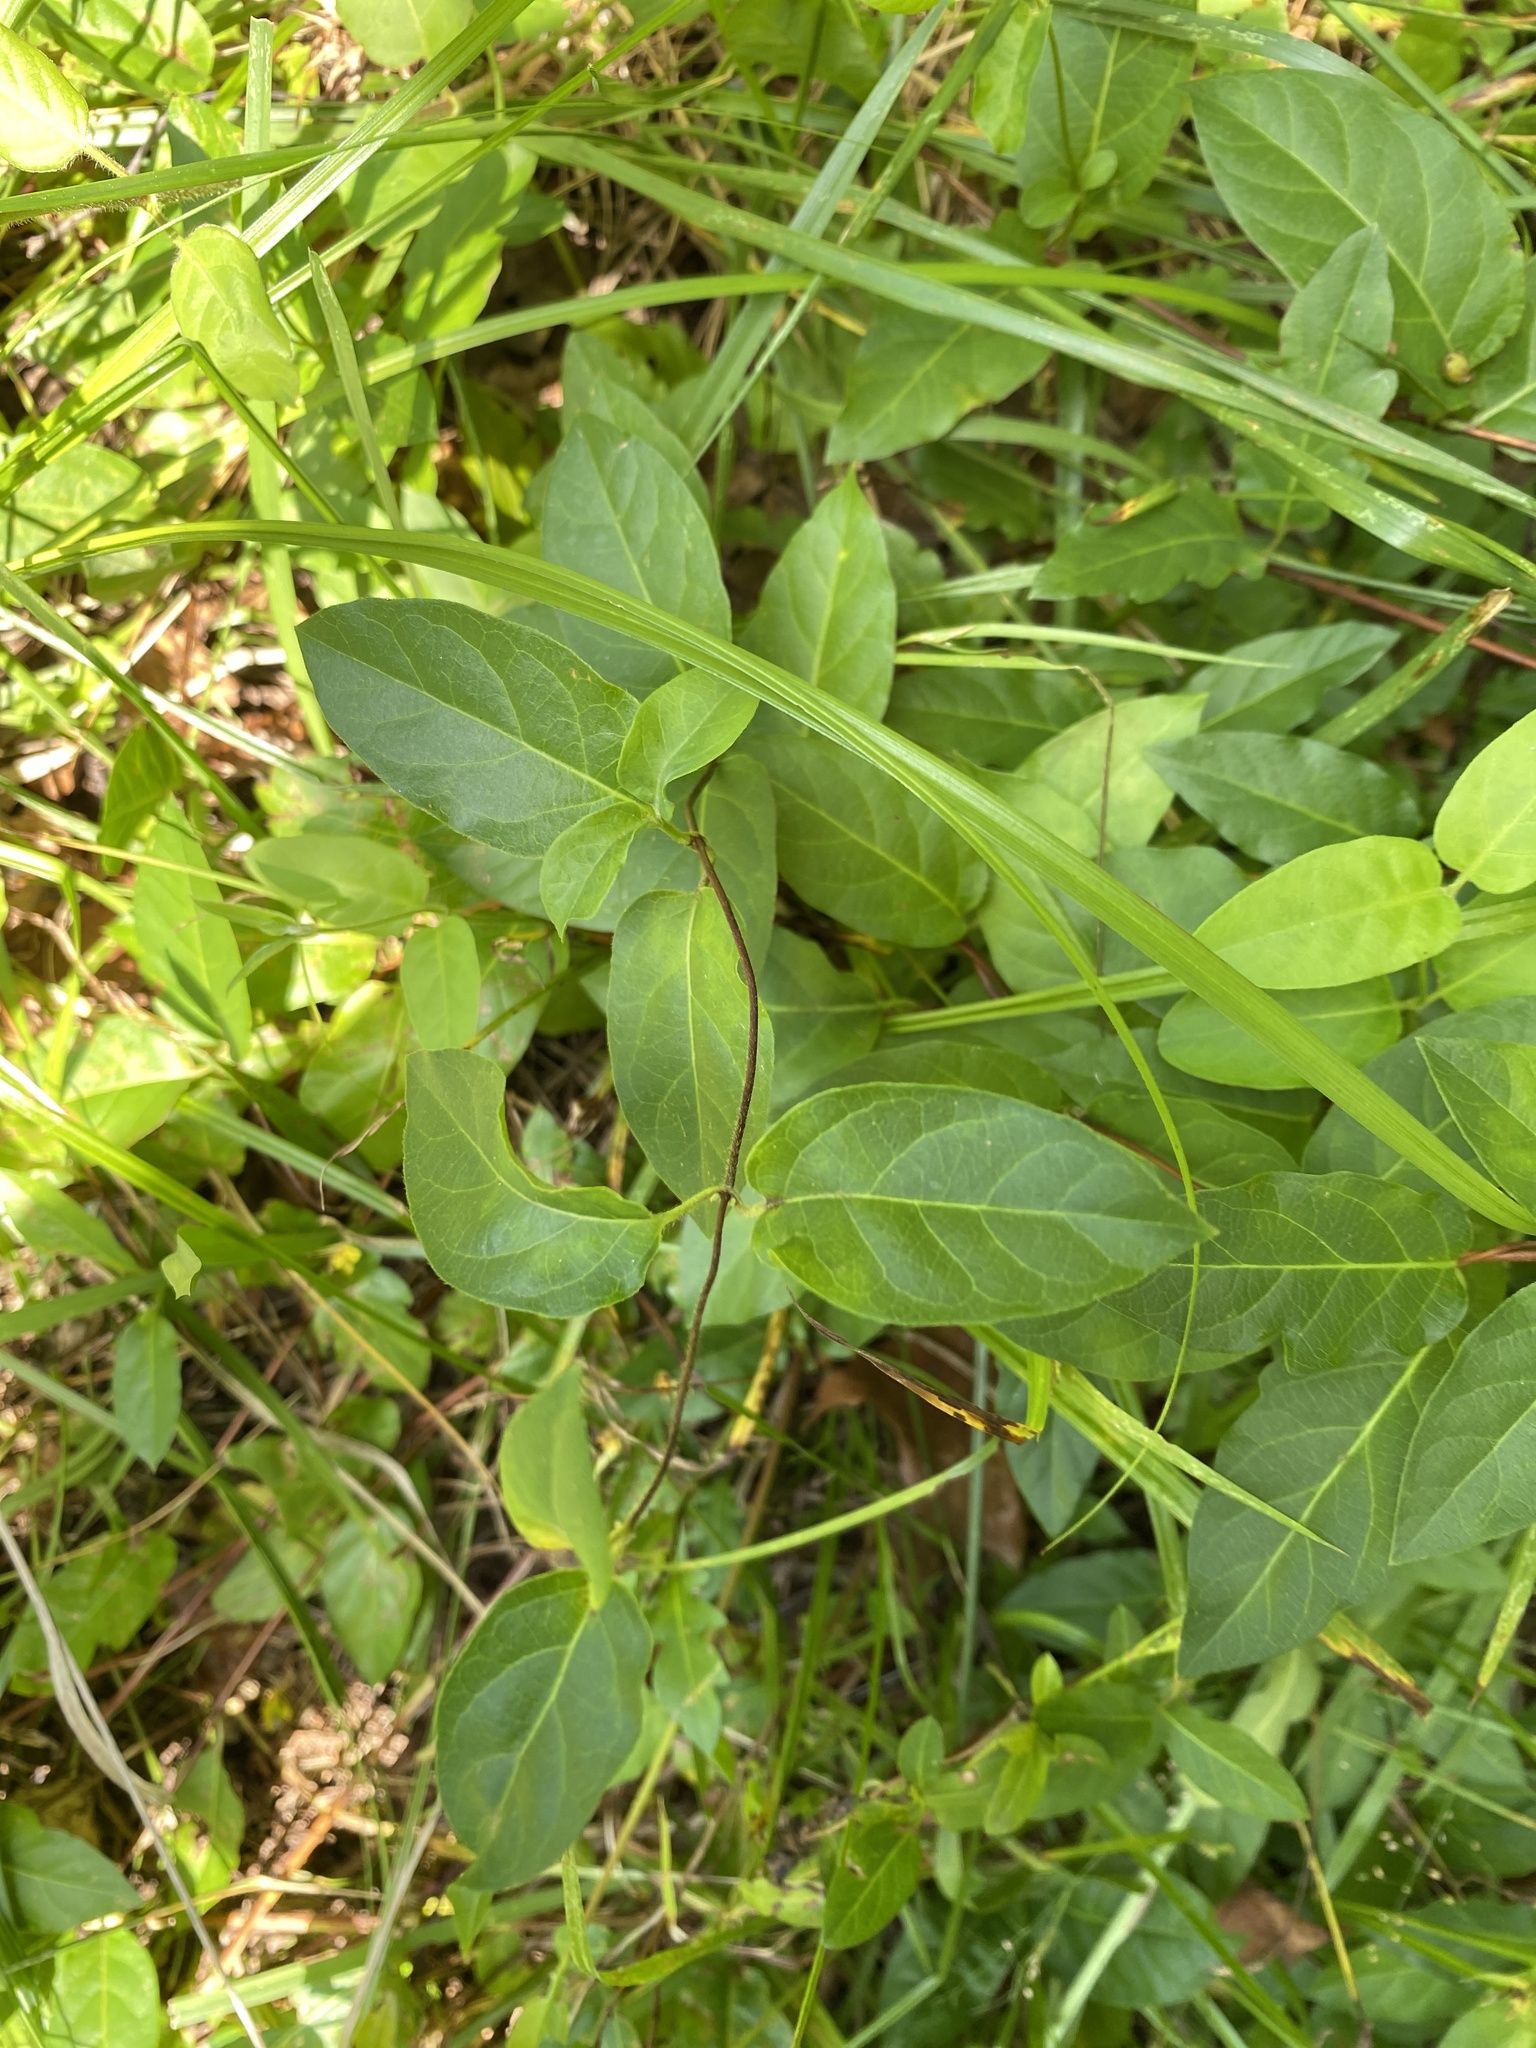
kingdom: Plantae
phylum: Tracheophyta
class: Magnoliopsida
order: Dipsacales
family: Caprifoliaceae
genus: Lonicera
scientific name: Lonicera japonica
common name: Japanese honeysuckle
